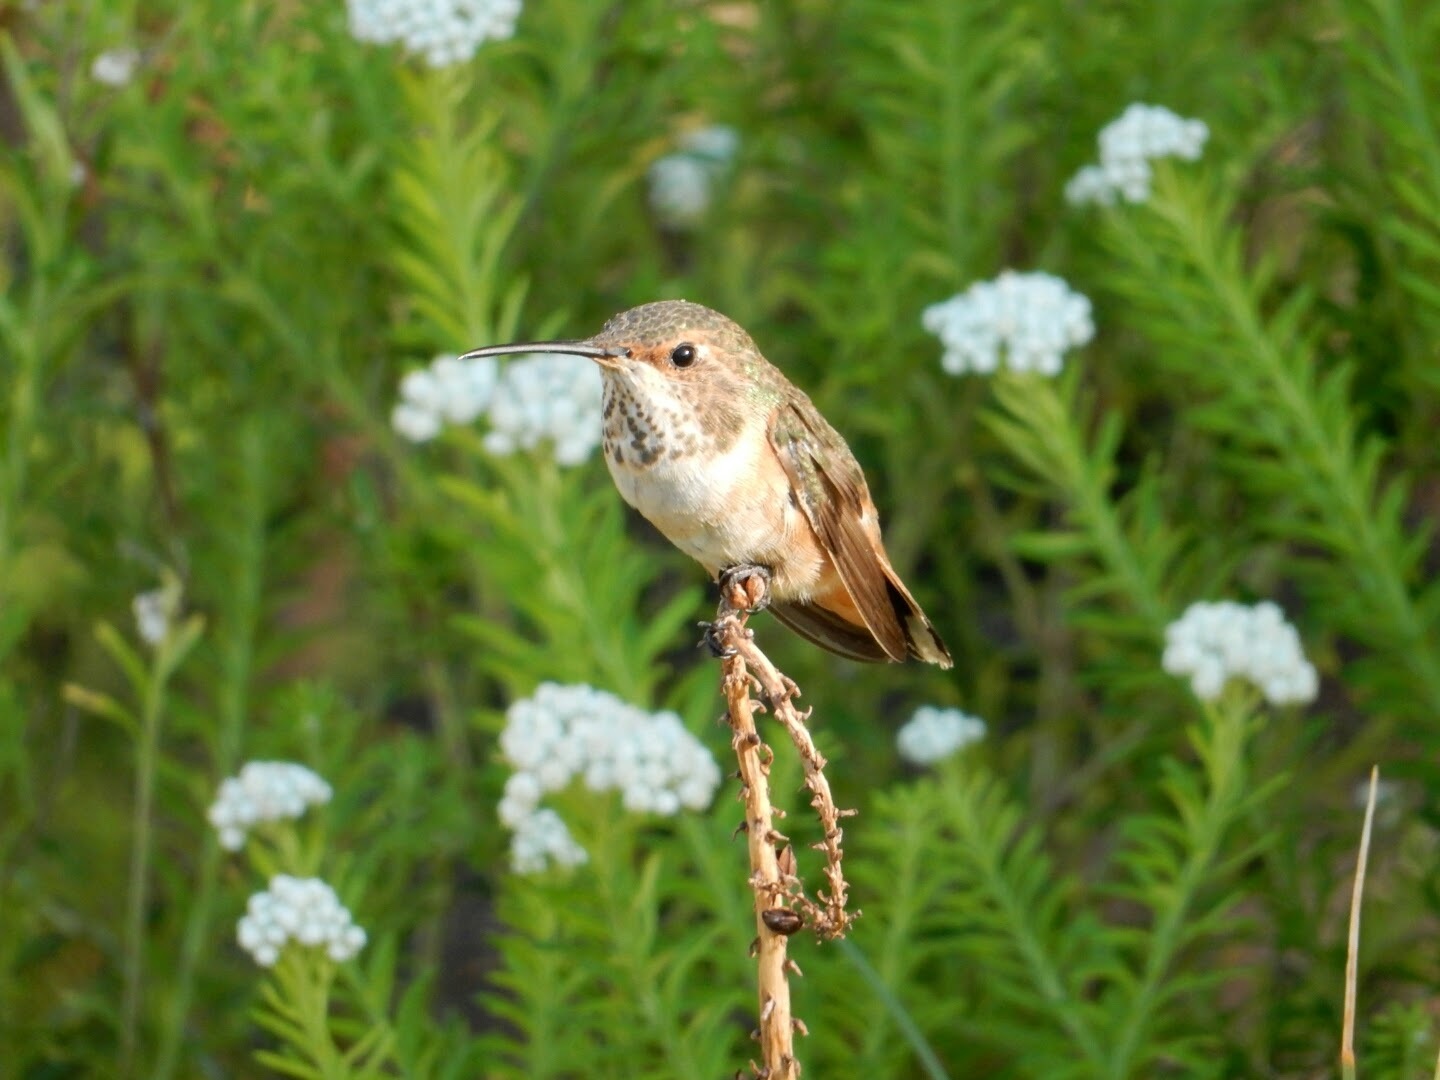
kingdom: Animalia
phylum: Chordata
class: Aves
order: Apodiformes
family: Trochilidae
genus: Selasphorus
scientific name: Selasphorus
